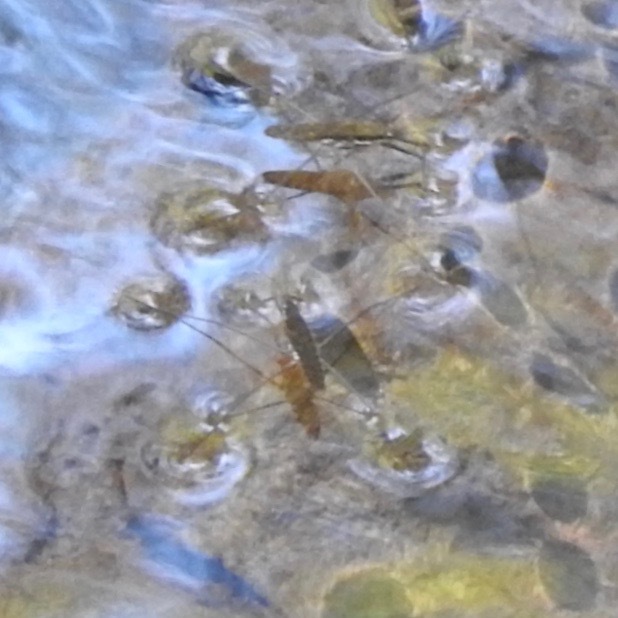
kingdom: Animalia
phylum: Arthropoda
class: Insecta
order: Hemiptera
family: Gerridae
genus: Aquarius
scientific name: Aquarius remigis
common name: Common water strider
